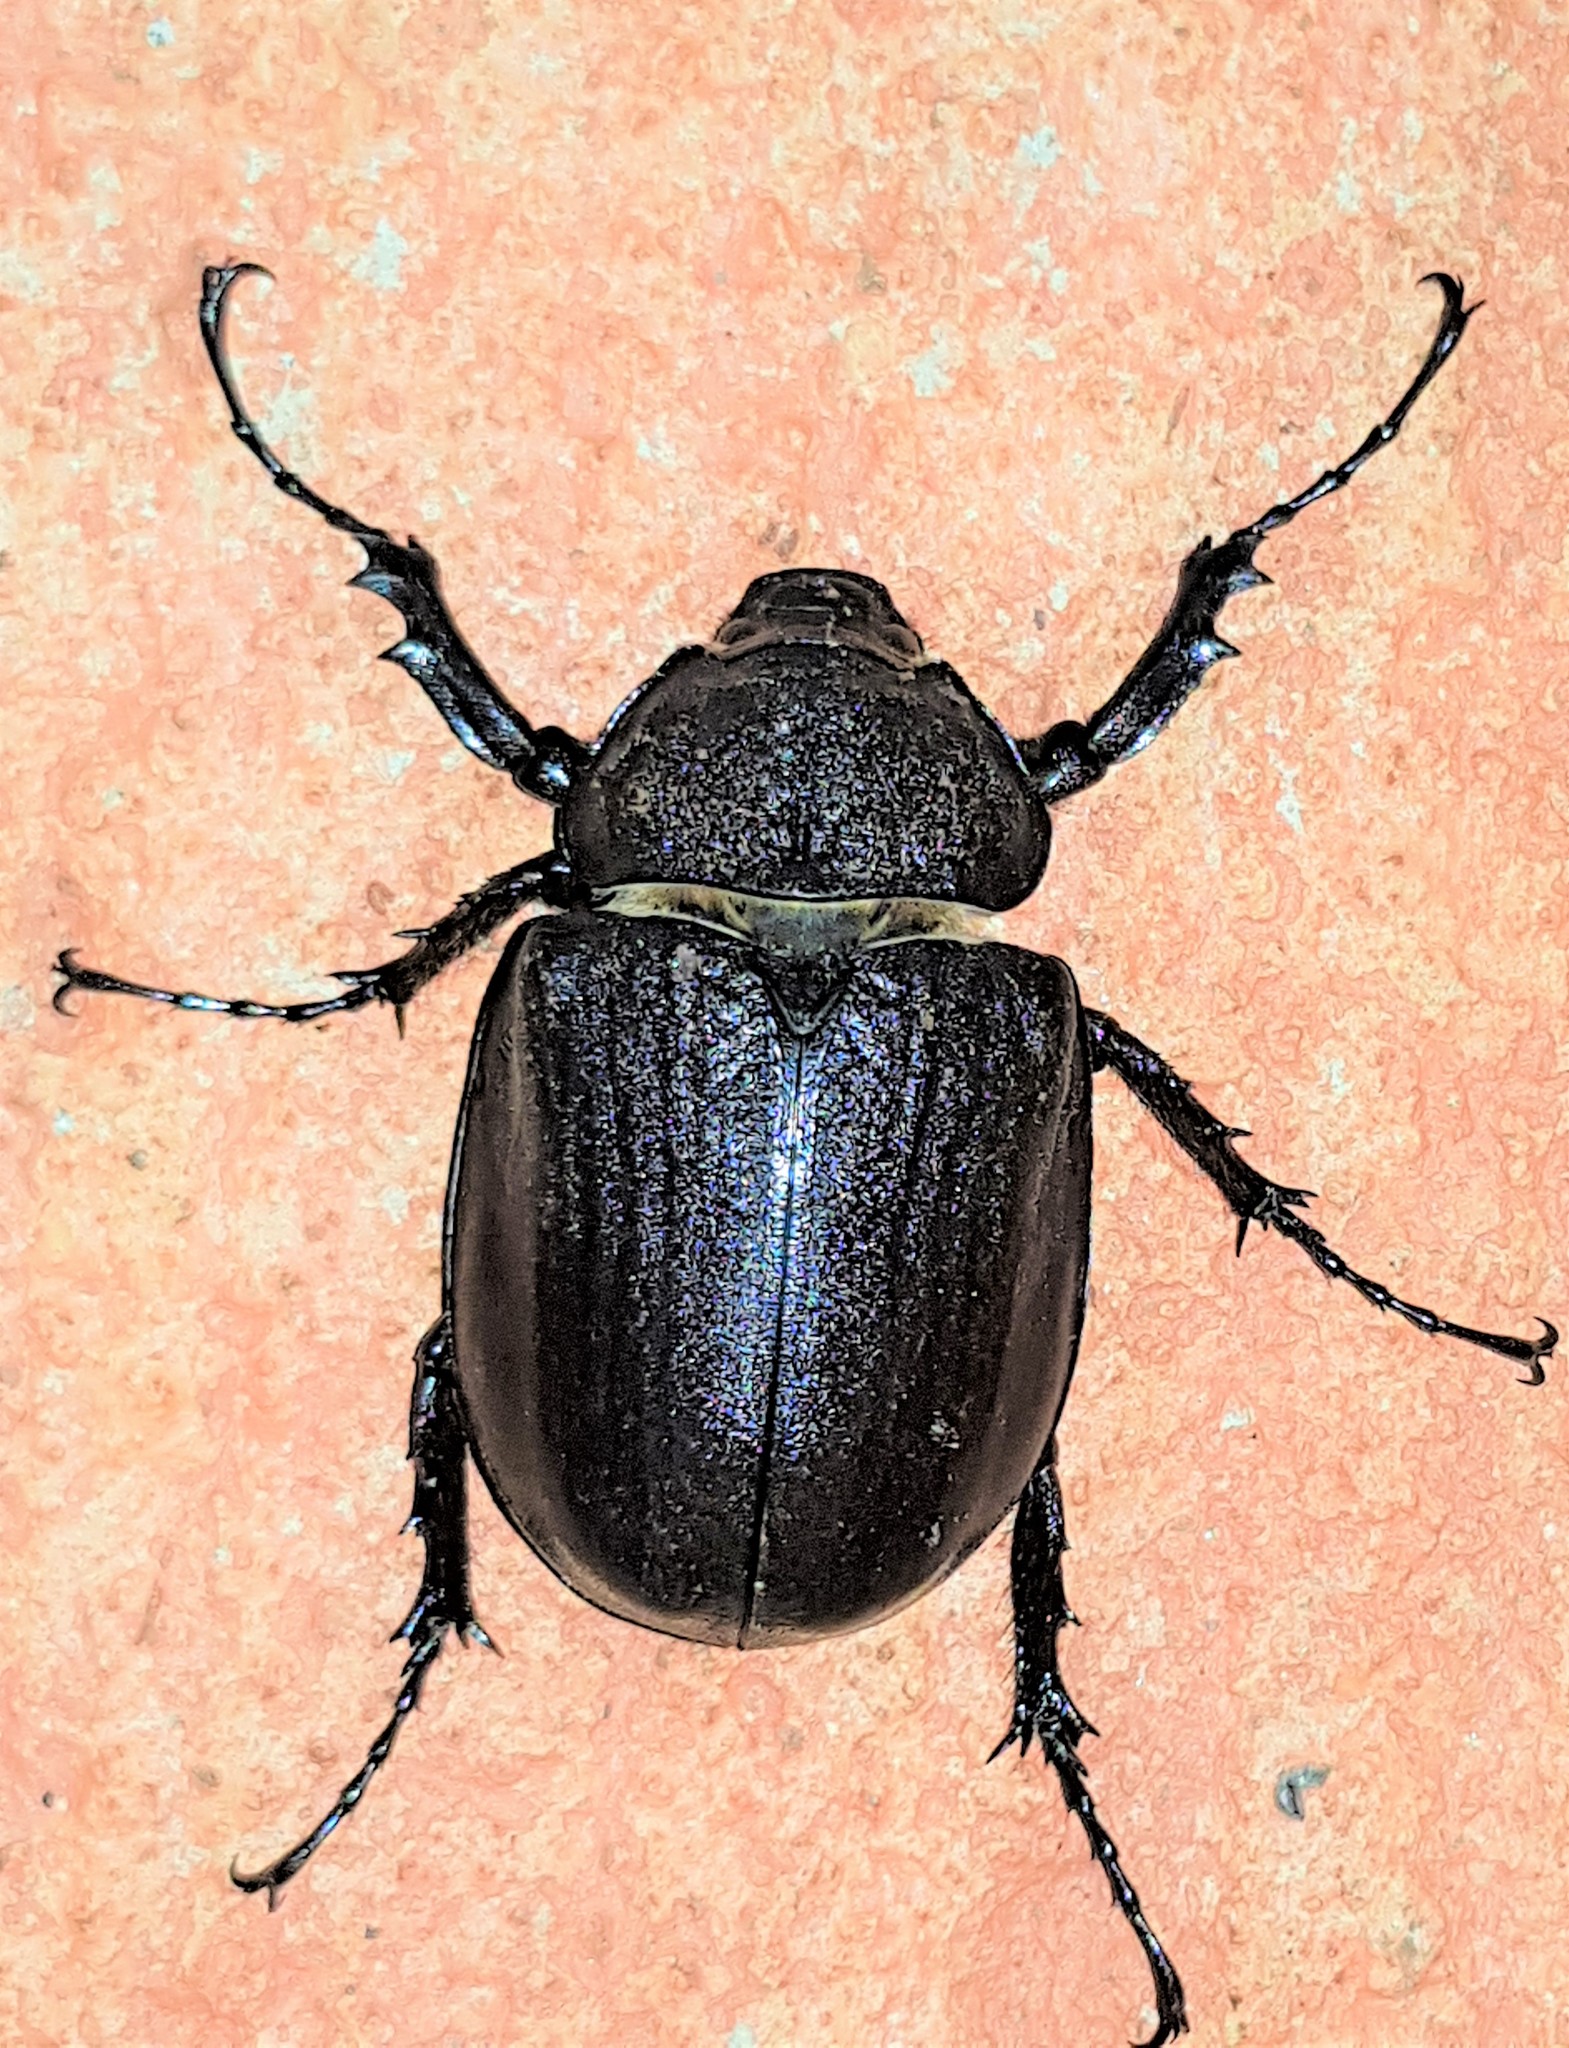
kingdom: Animalia
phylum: Arthropoda
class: Insecta
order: Coleoptera
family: Scarabaeidae
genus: Megasoma
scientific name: Megasoma actaeon
